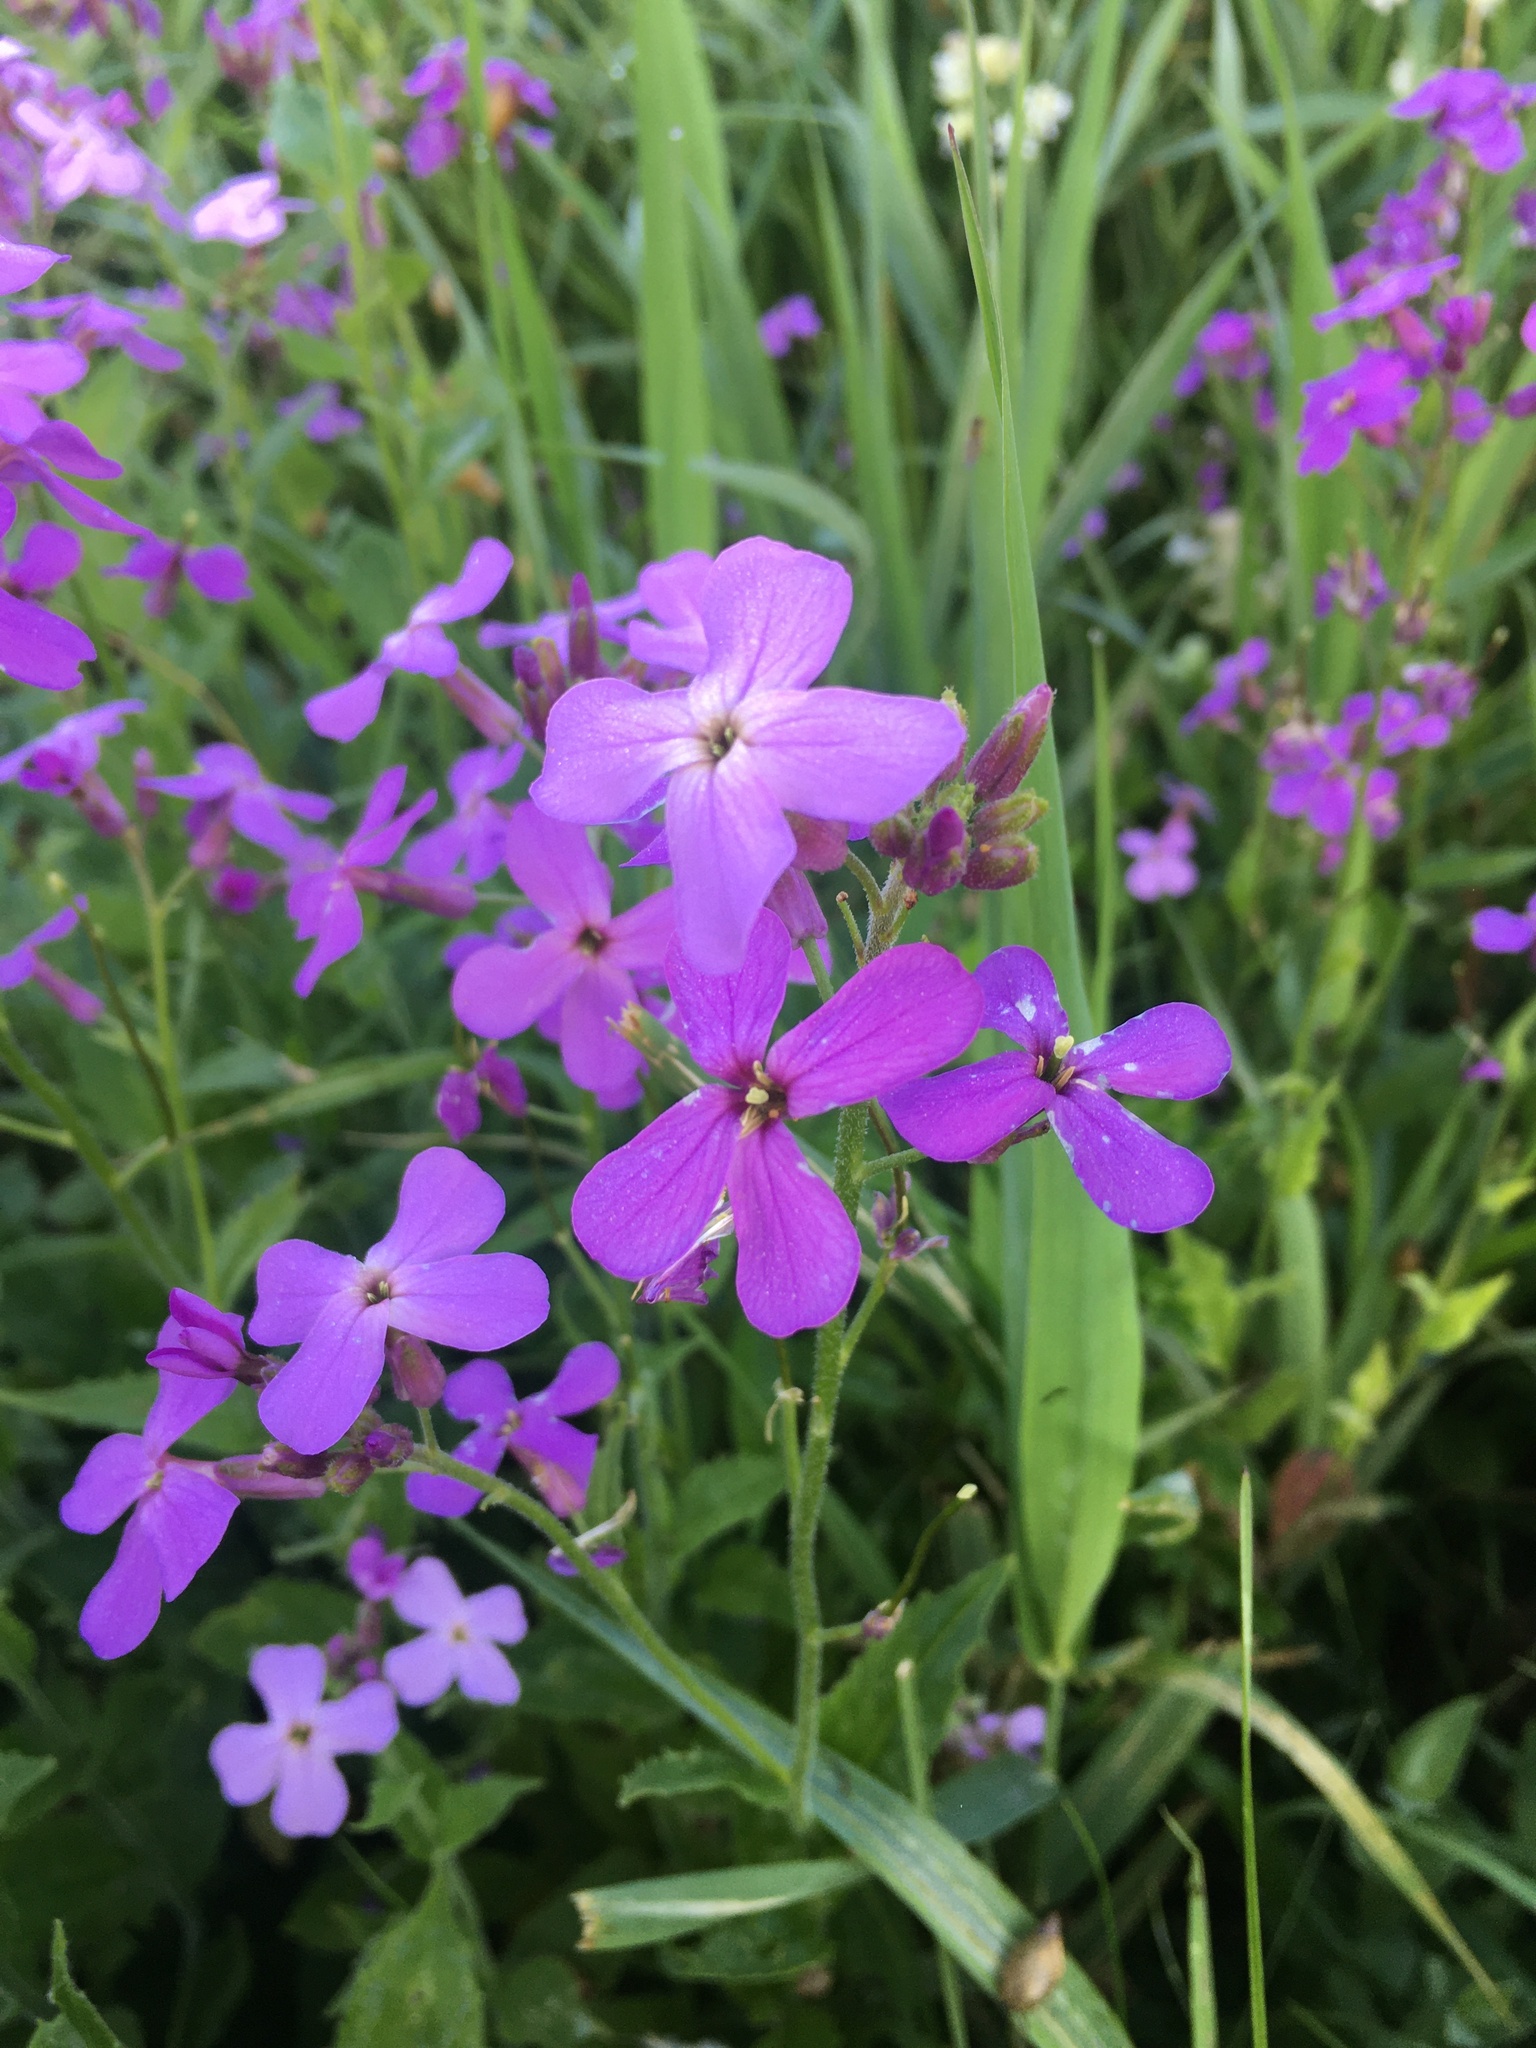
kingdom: Plantae
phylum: Tracheophyta
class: Magnoliopsida
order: Brassicales
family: Brassicaceae
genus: Hesperis
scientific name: Hesperis matronalis
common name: Dame's-violet
